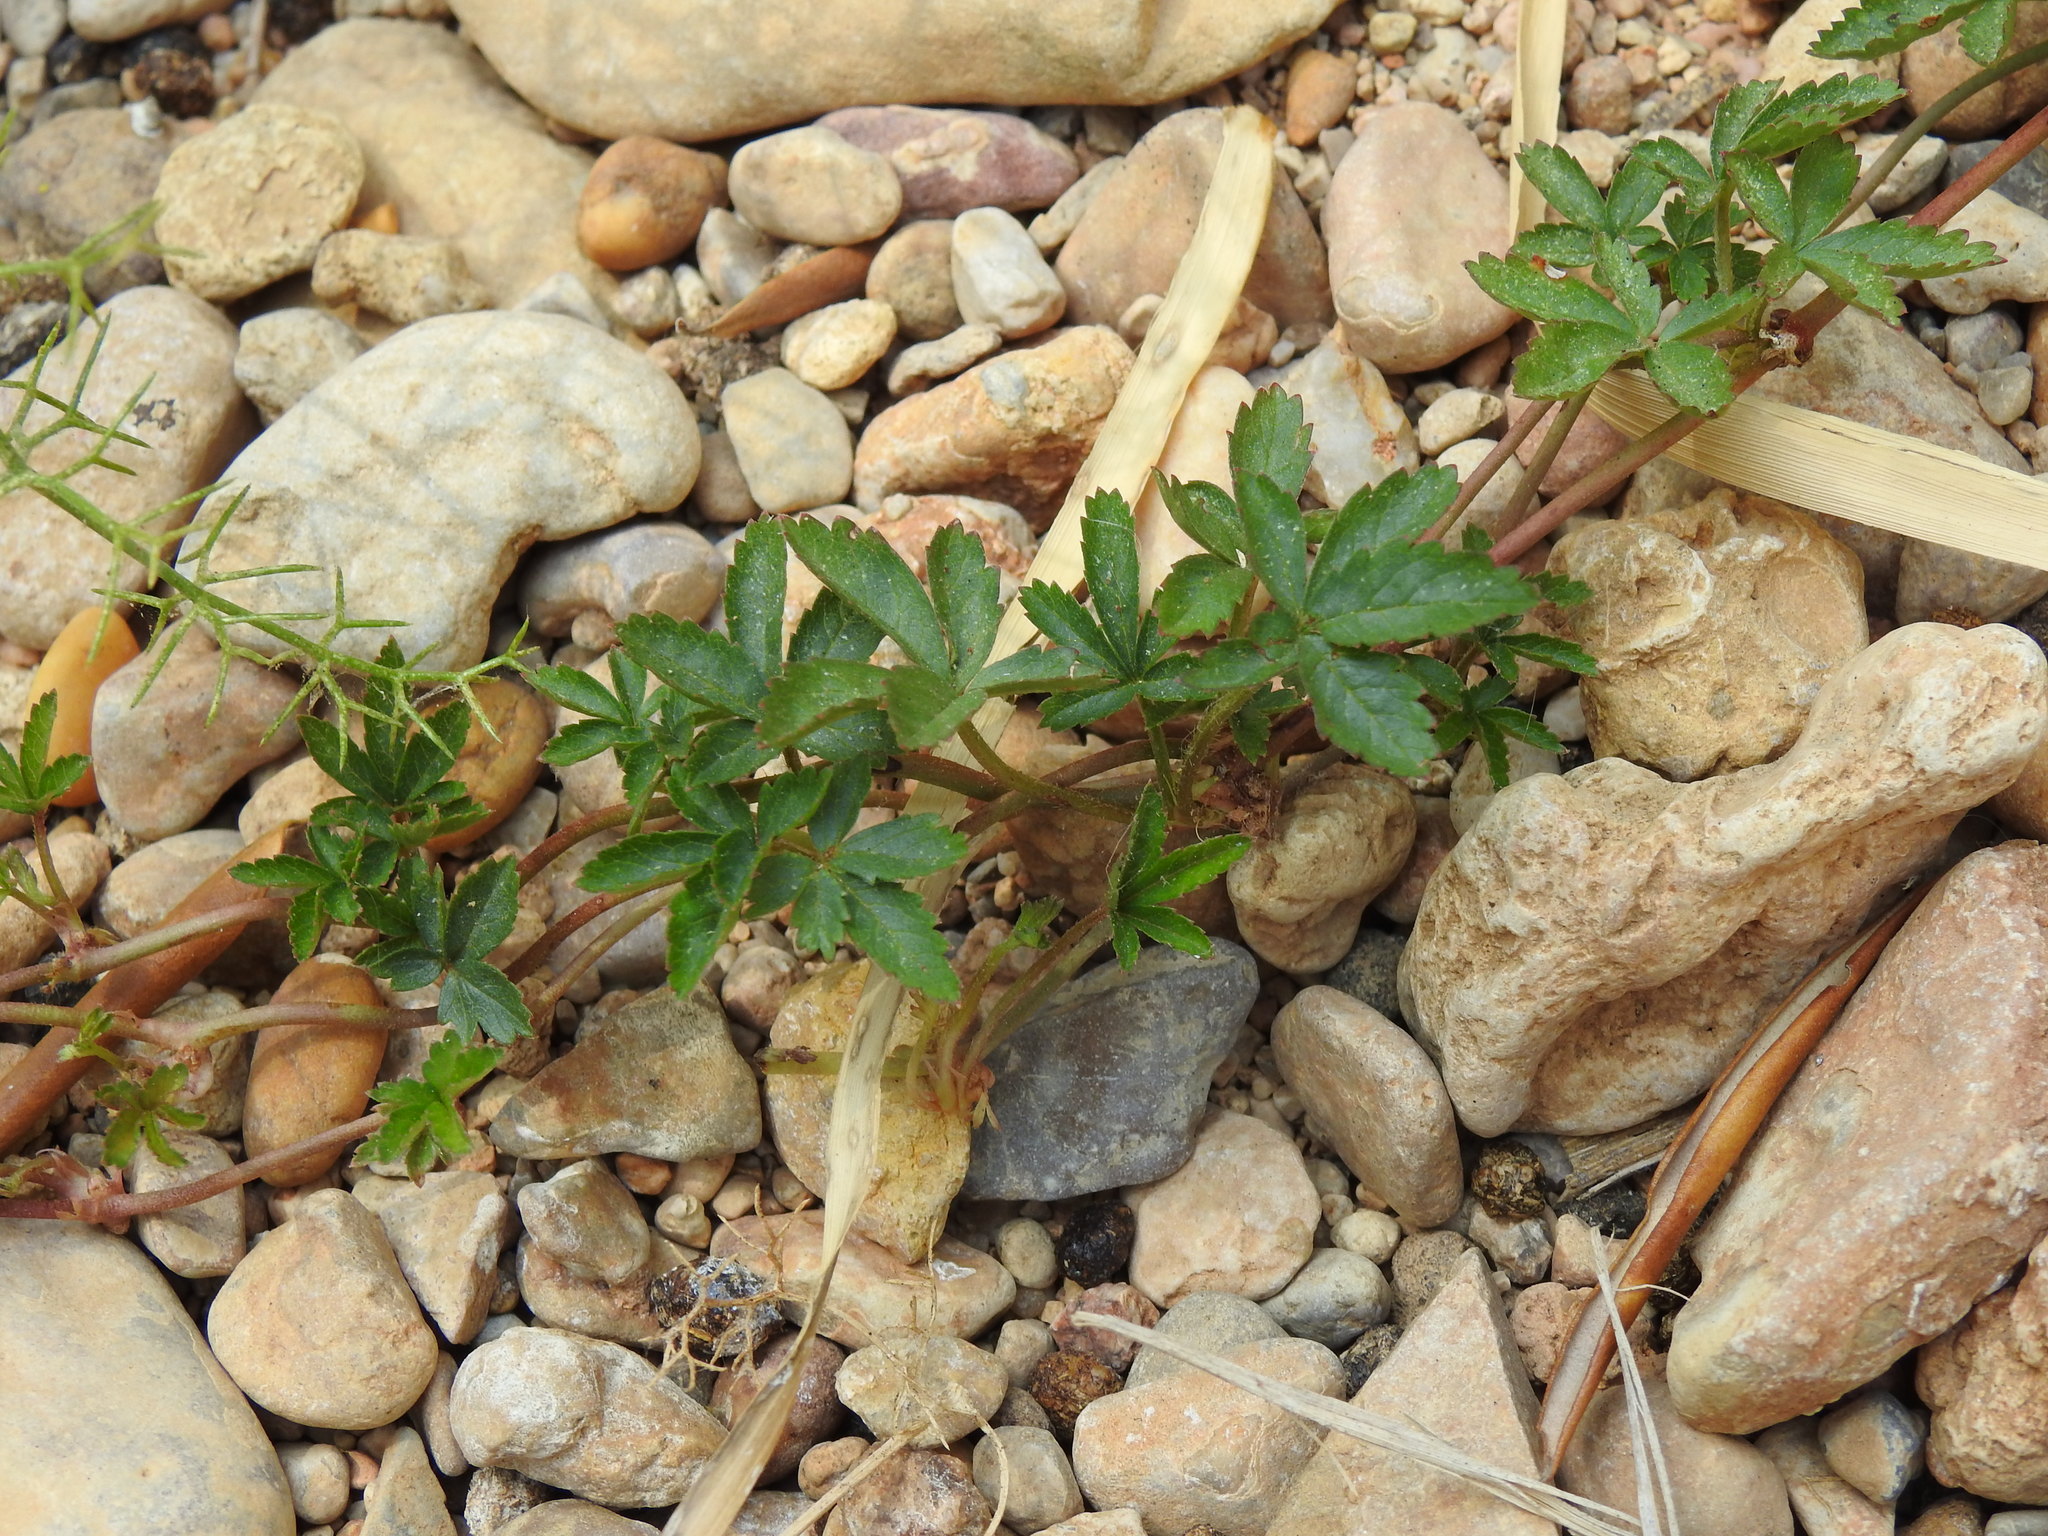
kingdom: Plantae
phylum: Tracheophyta
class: Magnoliopsida
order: Rosales
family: Rosaceae
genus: Potentilla
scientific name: Potentilla reptans
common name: Creeping cinquefoil
